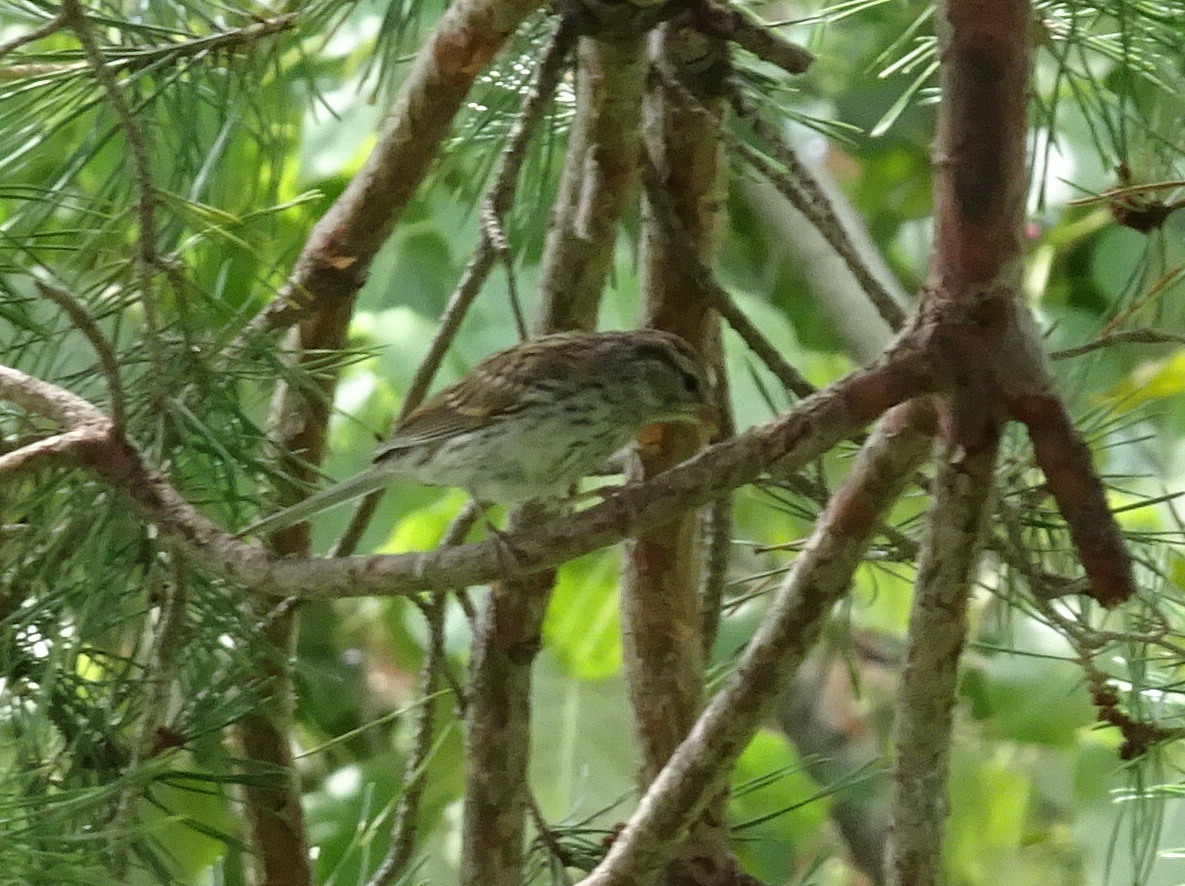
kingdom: Animalia
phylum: Chordata
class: Aves
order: Passeriformes
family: Passerellidae
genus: Spizella
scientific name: Spizella passerina
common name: Chipping sparrow
